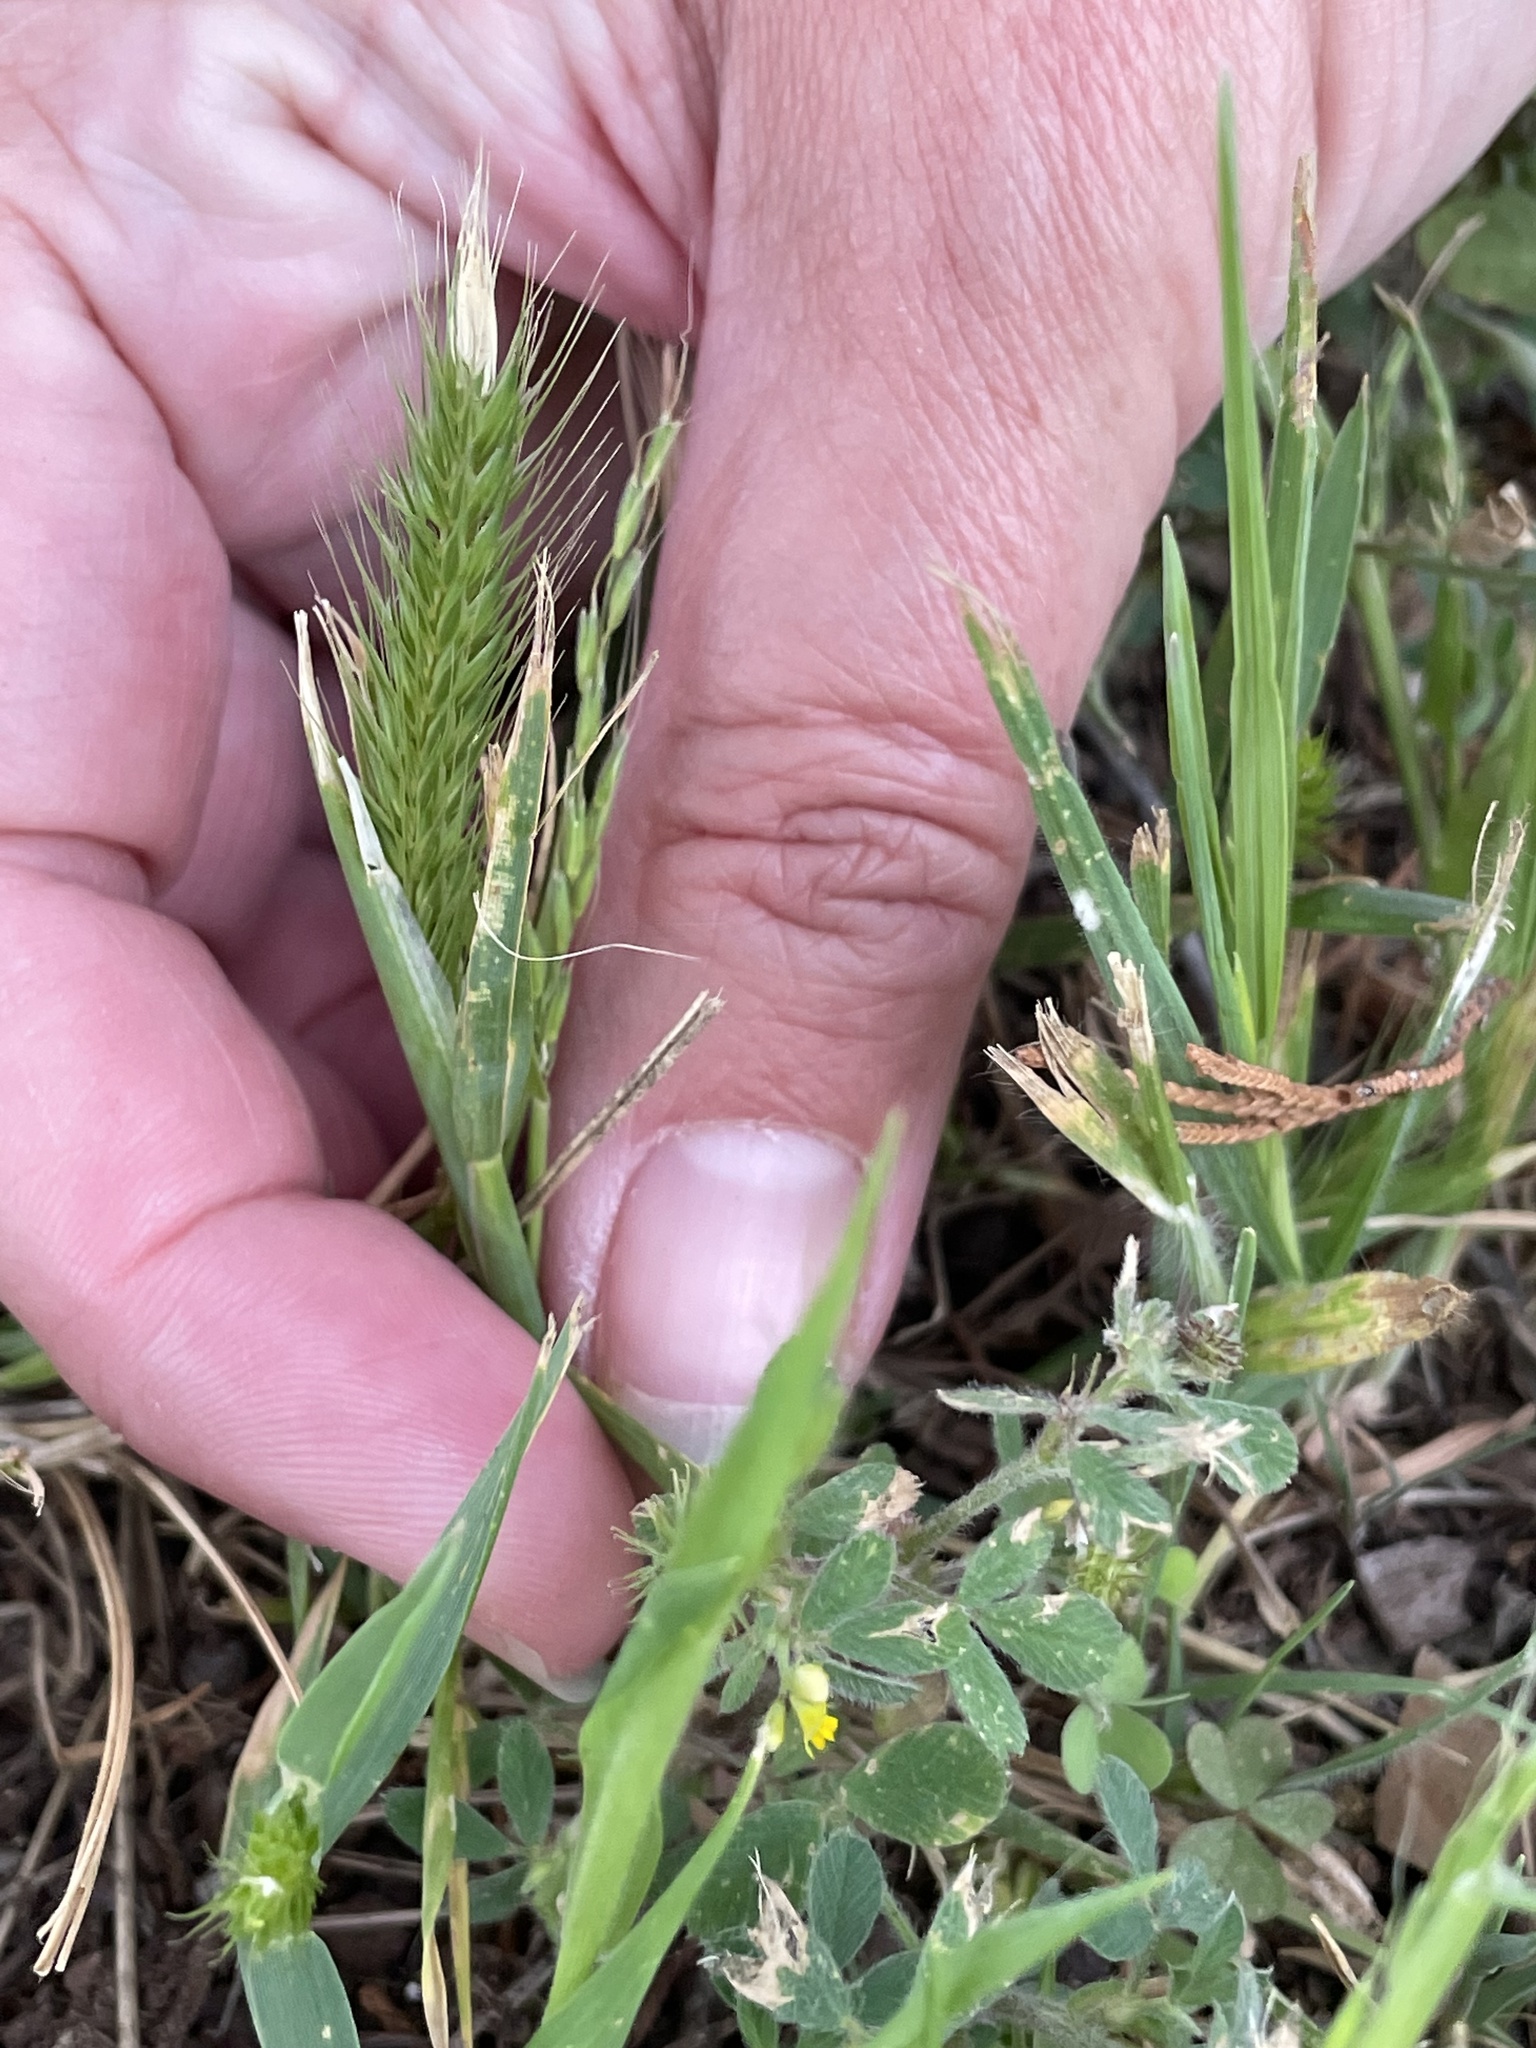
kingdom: Plantae
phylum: Tracheophyta
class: Liliopsida
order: Poales
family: Poaceae
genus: Hordeum
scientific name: Hordeum pusillum
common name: Little barley
